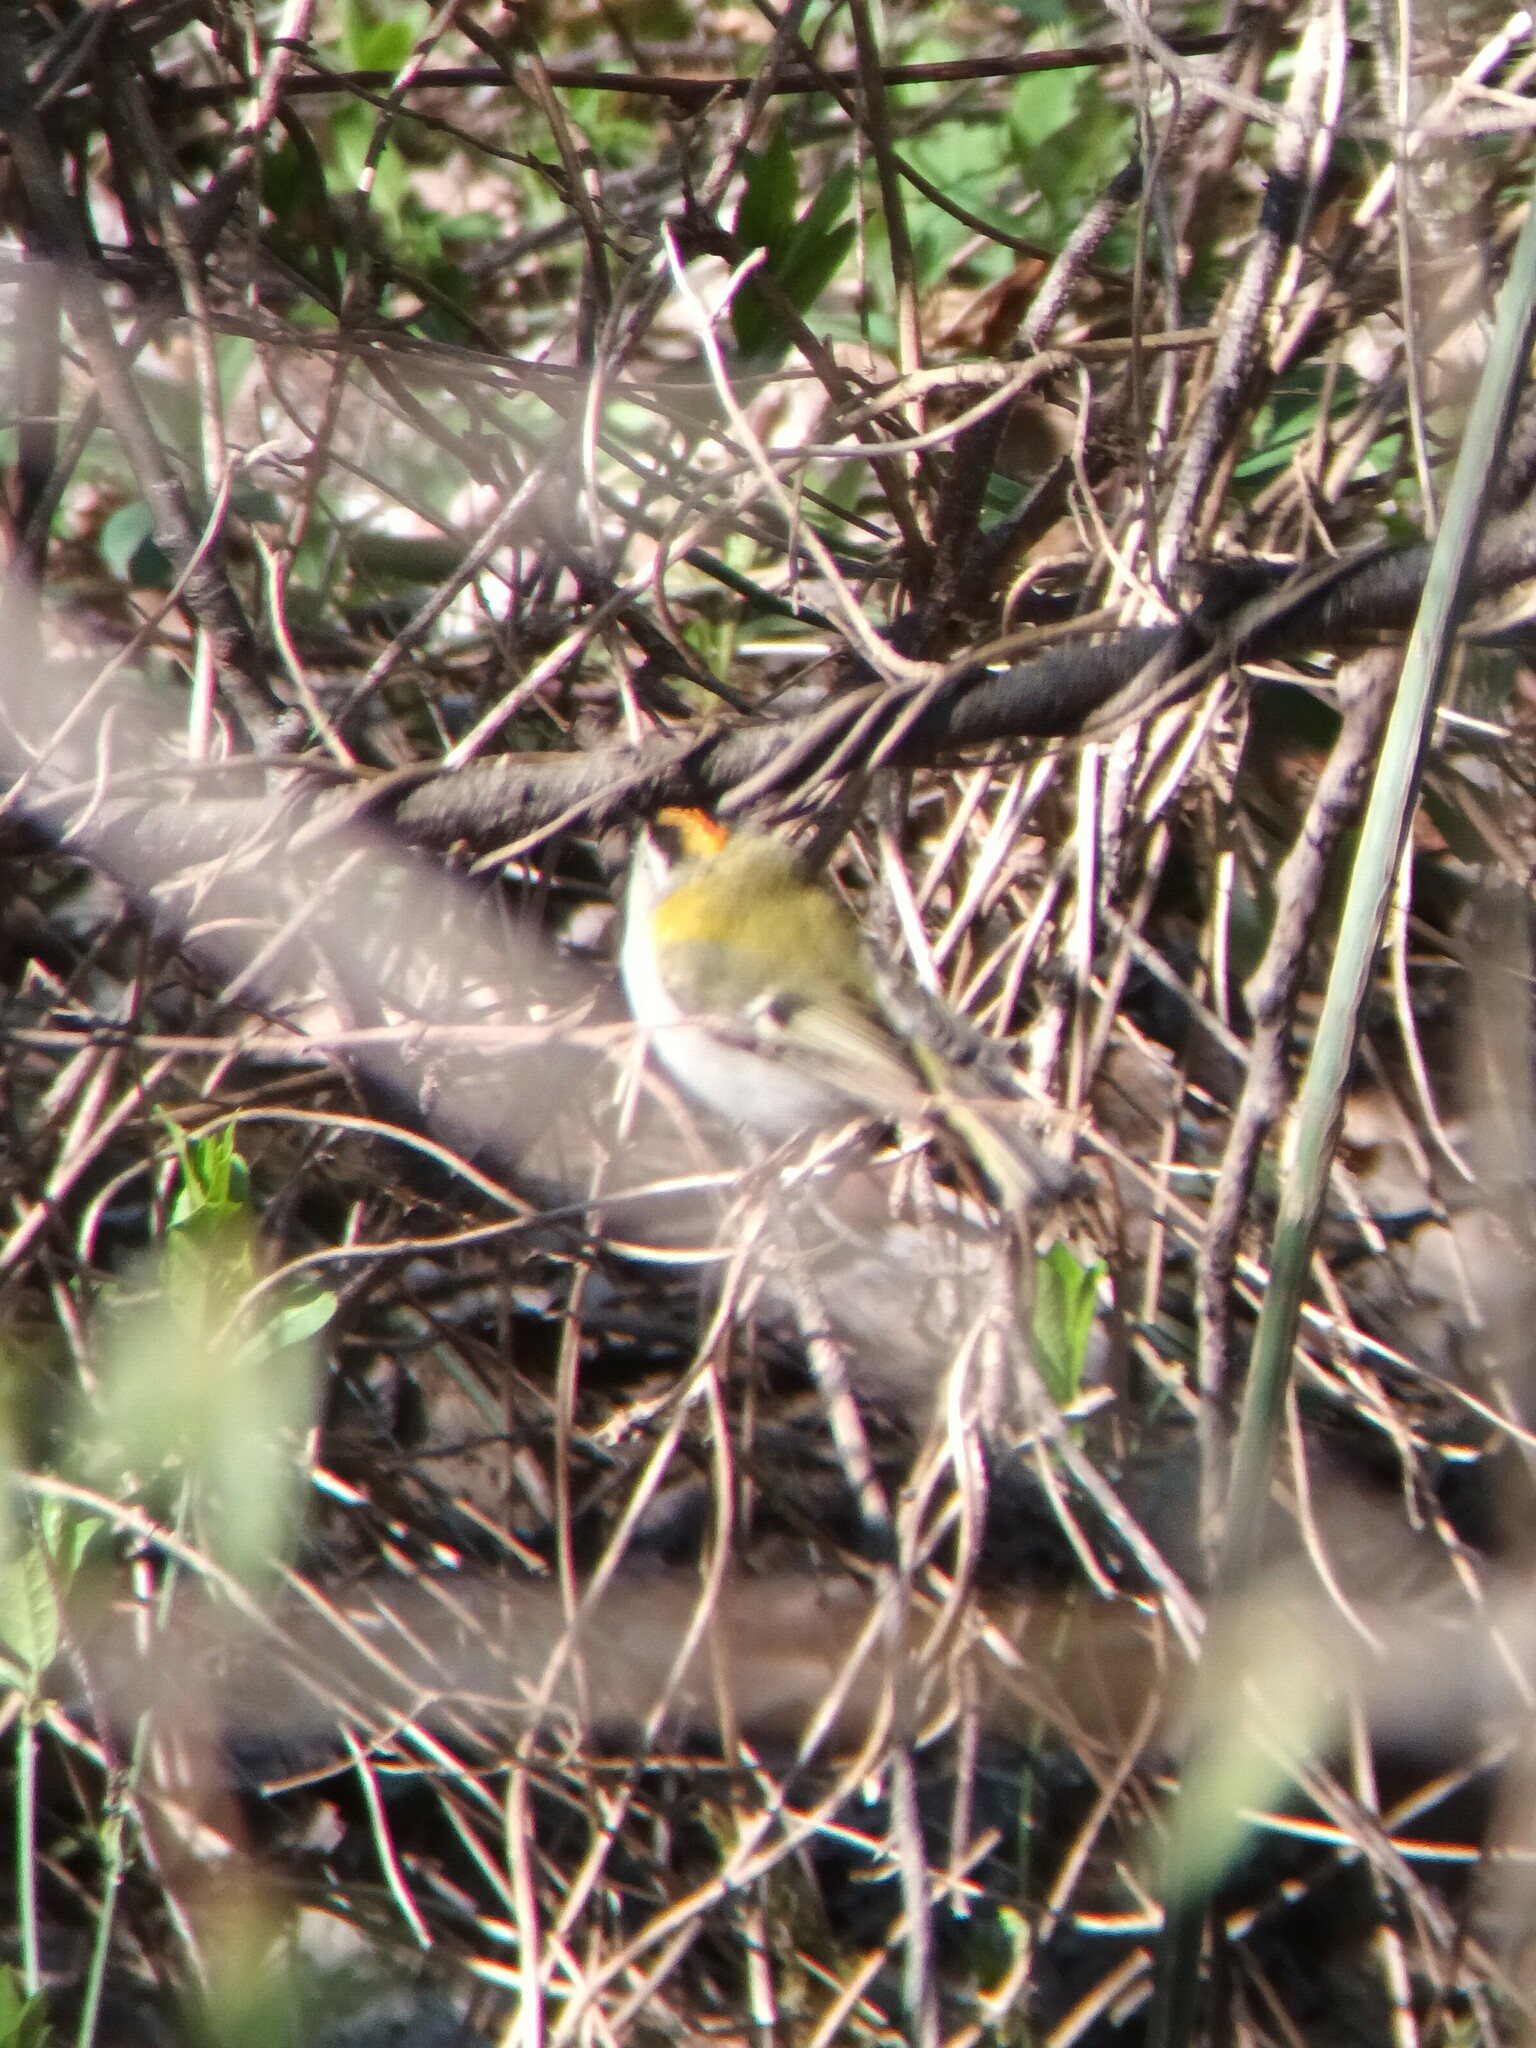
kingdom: Animalia
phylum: Chordata
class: Aves
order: Passeriformes
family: Regulidae
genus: Regulus
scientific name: Regulus ignicapilla
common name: Firecrest
